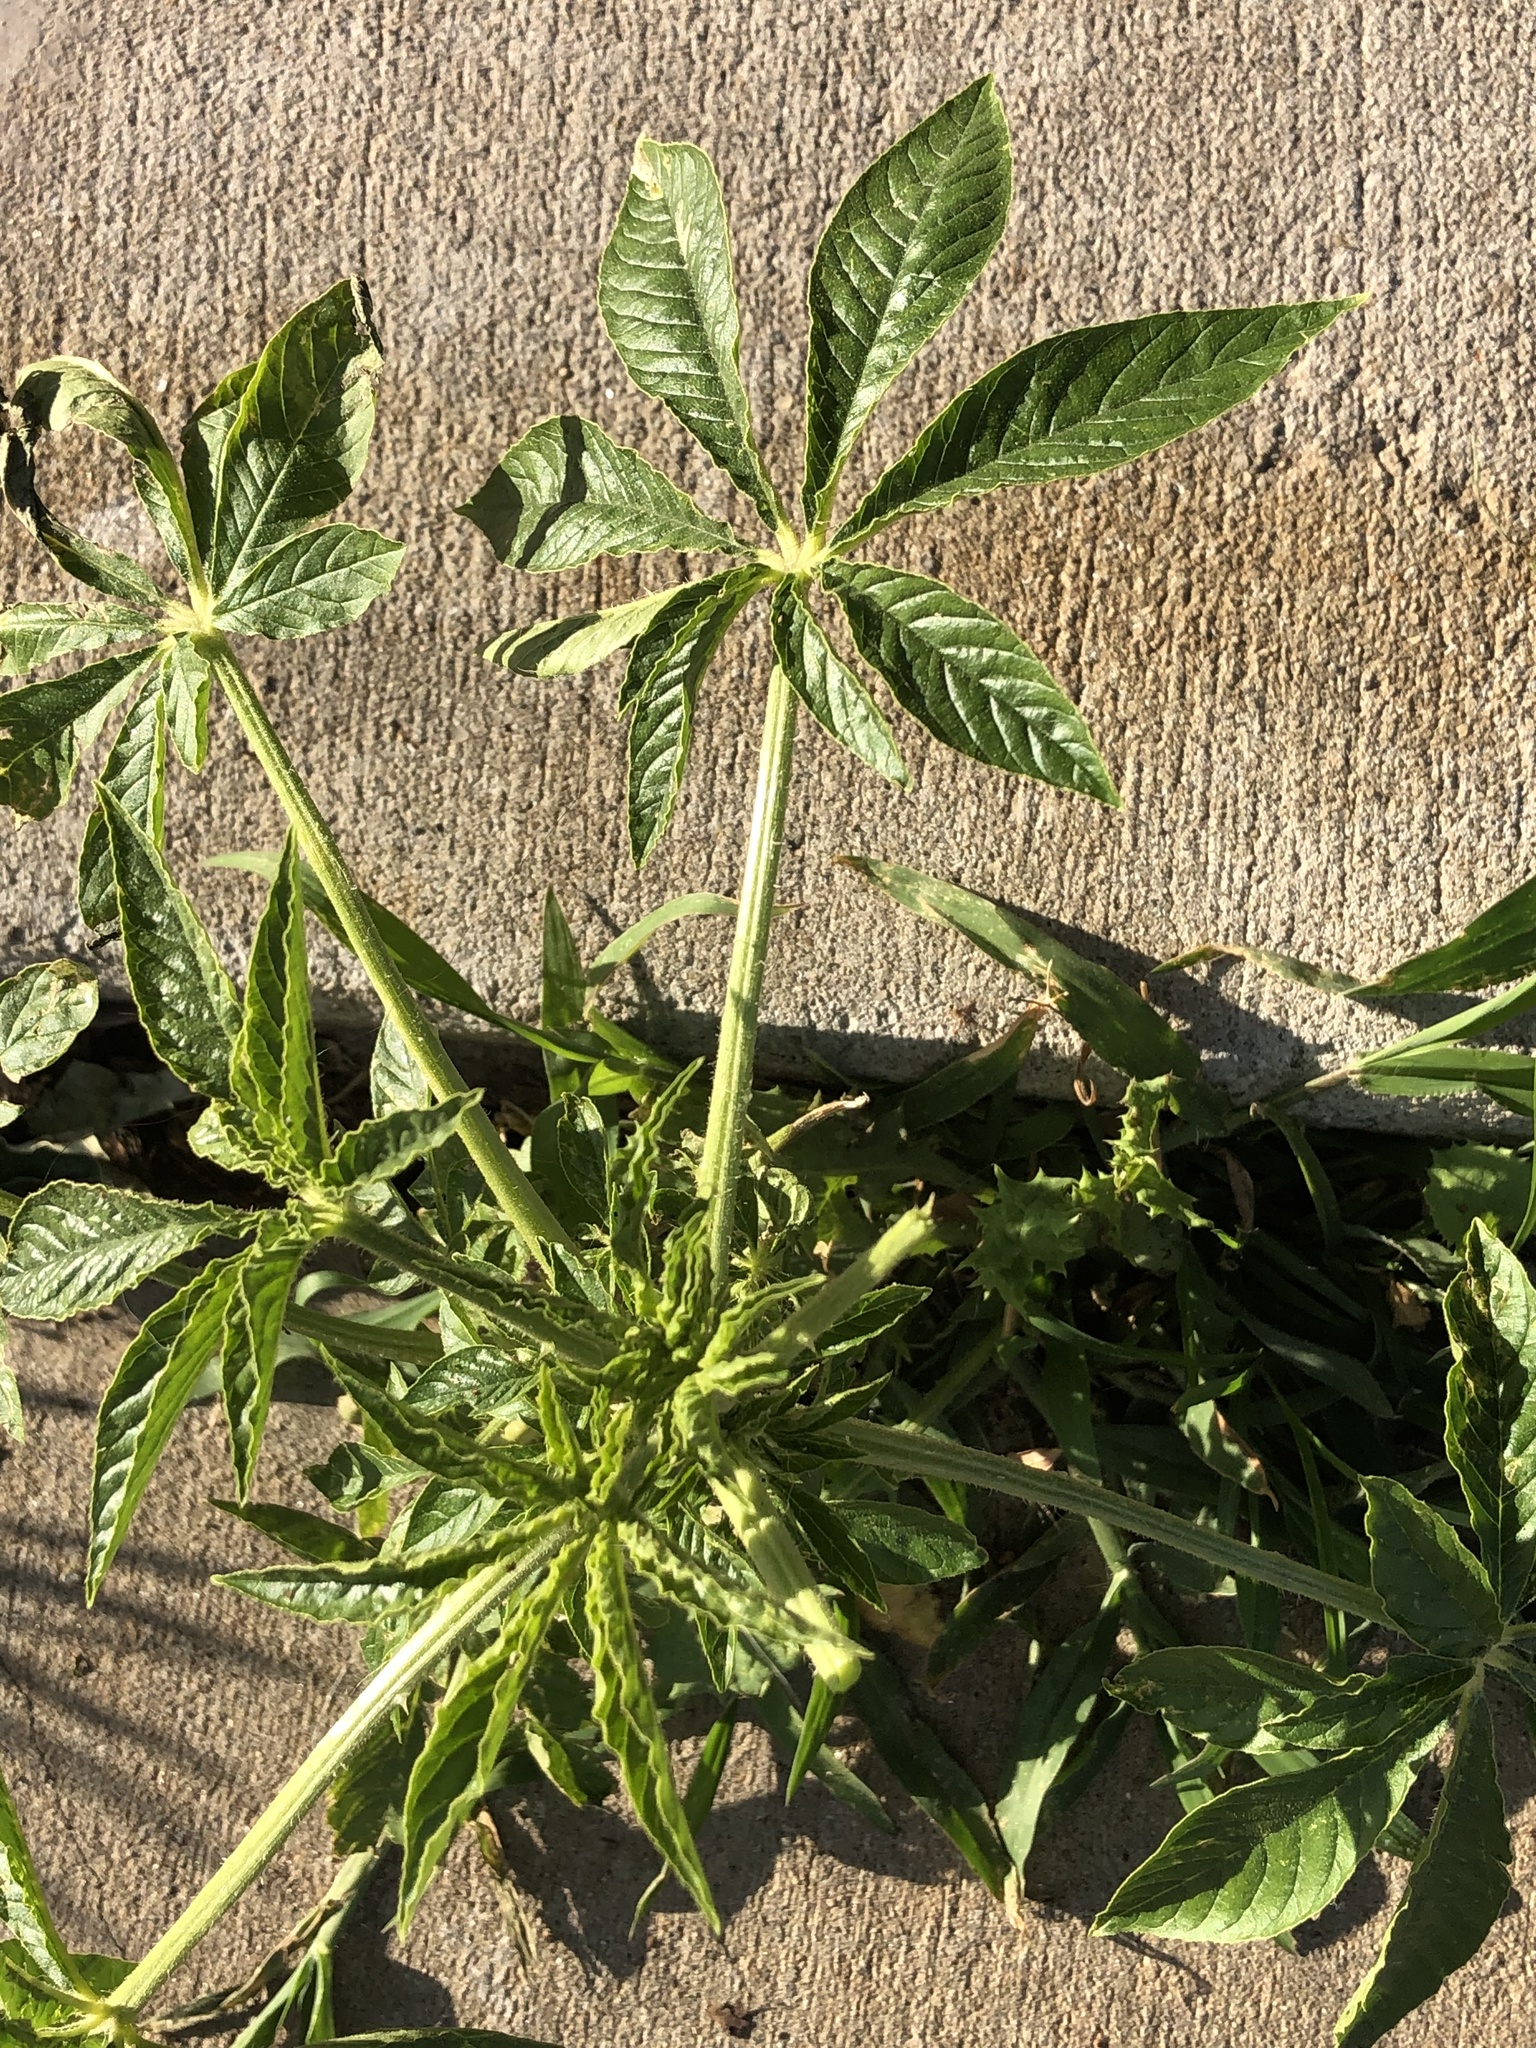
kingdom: Plantae
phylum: Tracheophyta
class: Magnoliopsida
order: Brassicales
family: Cleomaceae
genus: Tarenaya
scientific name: Tarenaya houtteana
